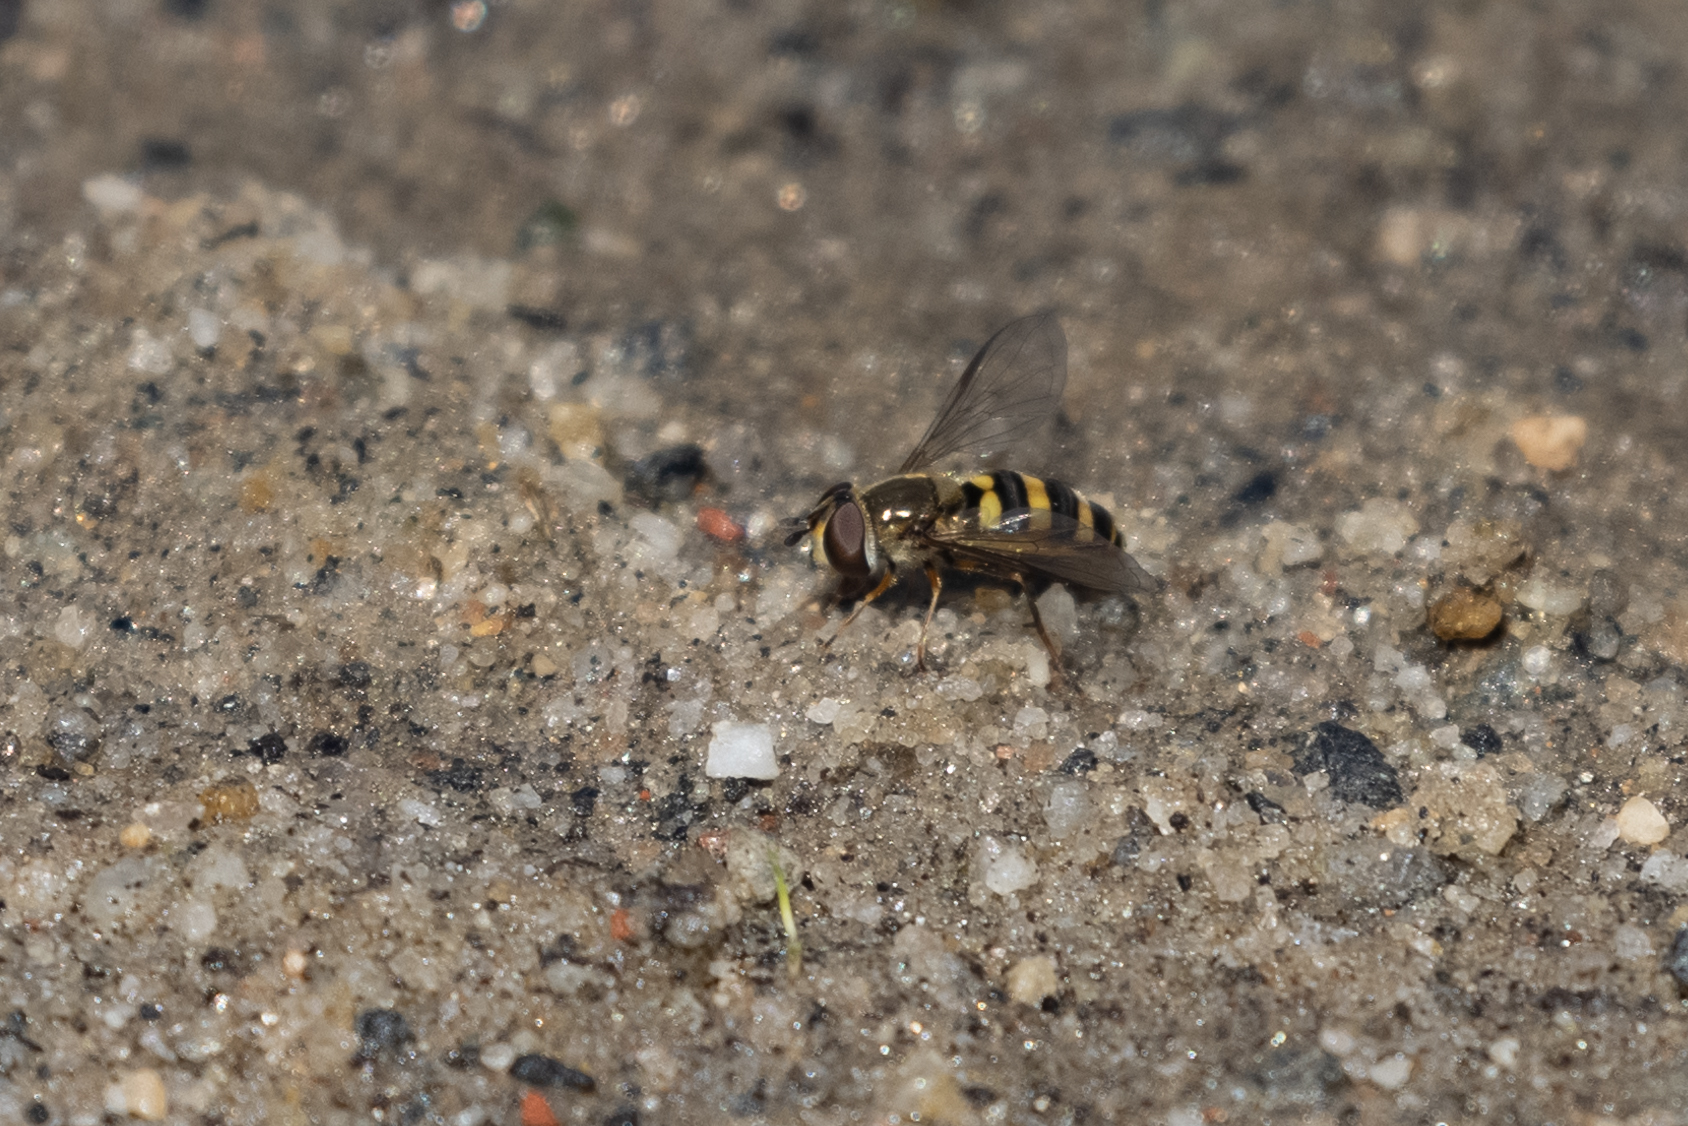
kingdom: Animalia
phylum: Arthropoda
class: Insecta
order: Diptera
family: Syrphidae
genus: Eupeodes
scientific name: Eupeodes
